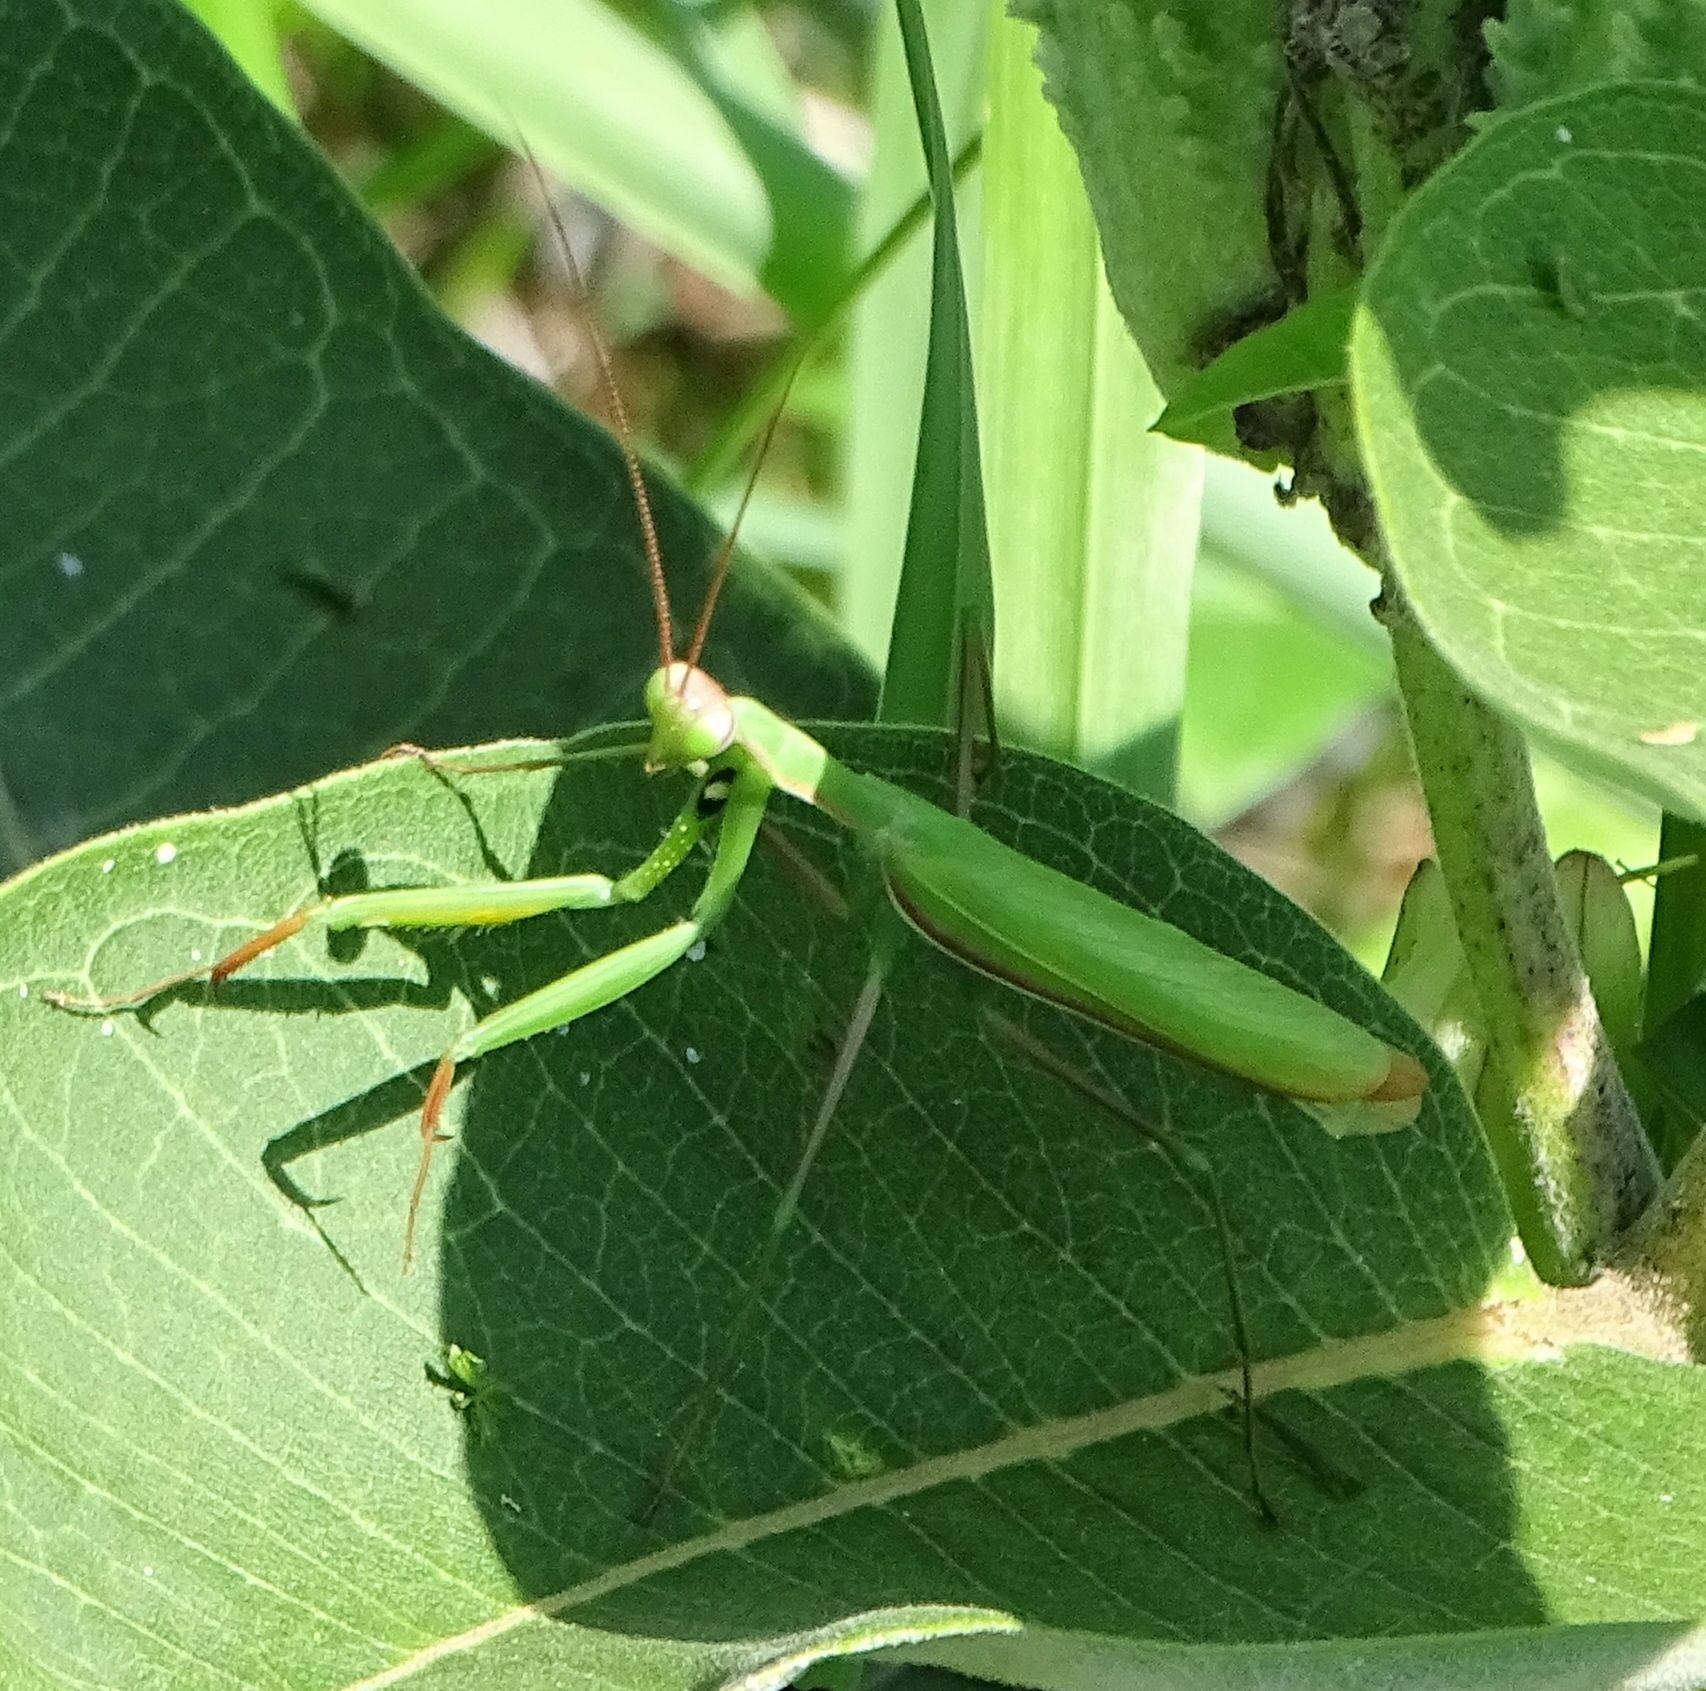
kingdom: Animalia
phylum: Arthropoda
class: Insecta
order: Mantodea
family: Mantidae
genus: Mantis
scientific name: Mantis religiosa
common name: Praying mantis
